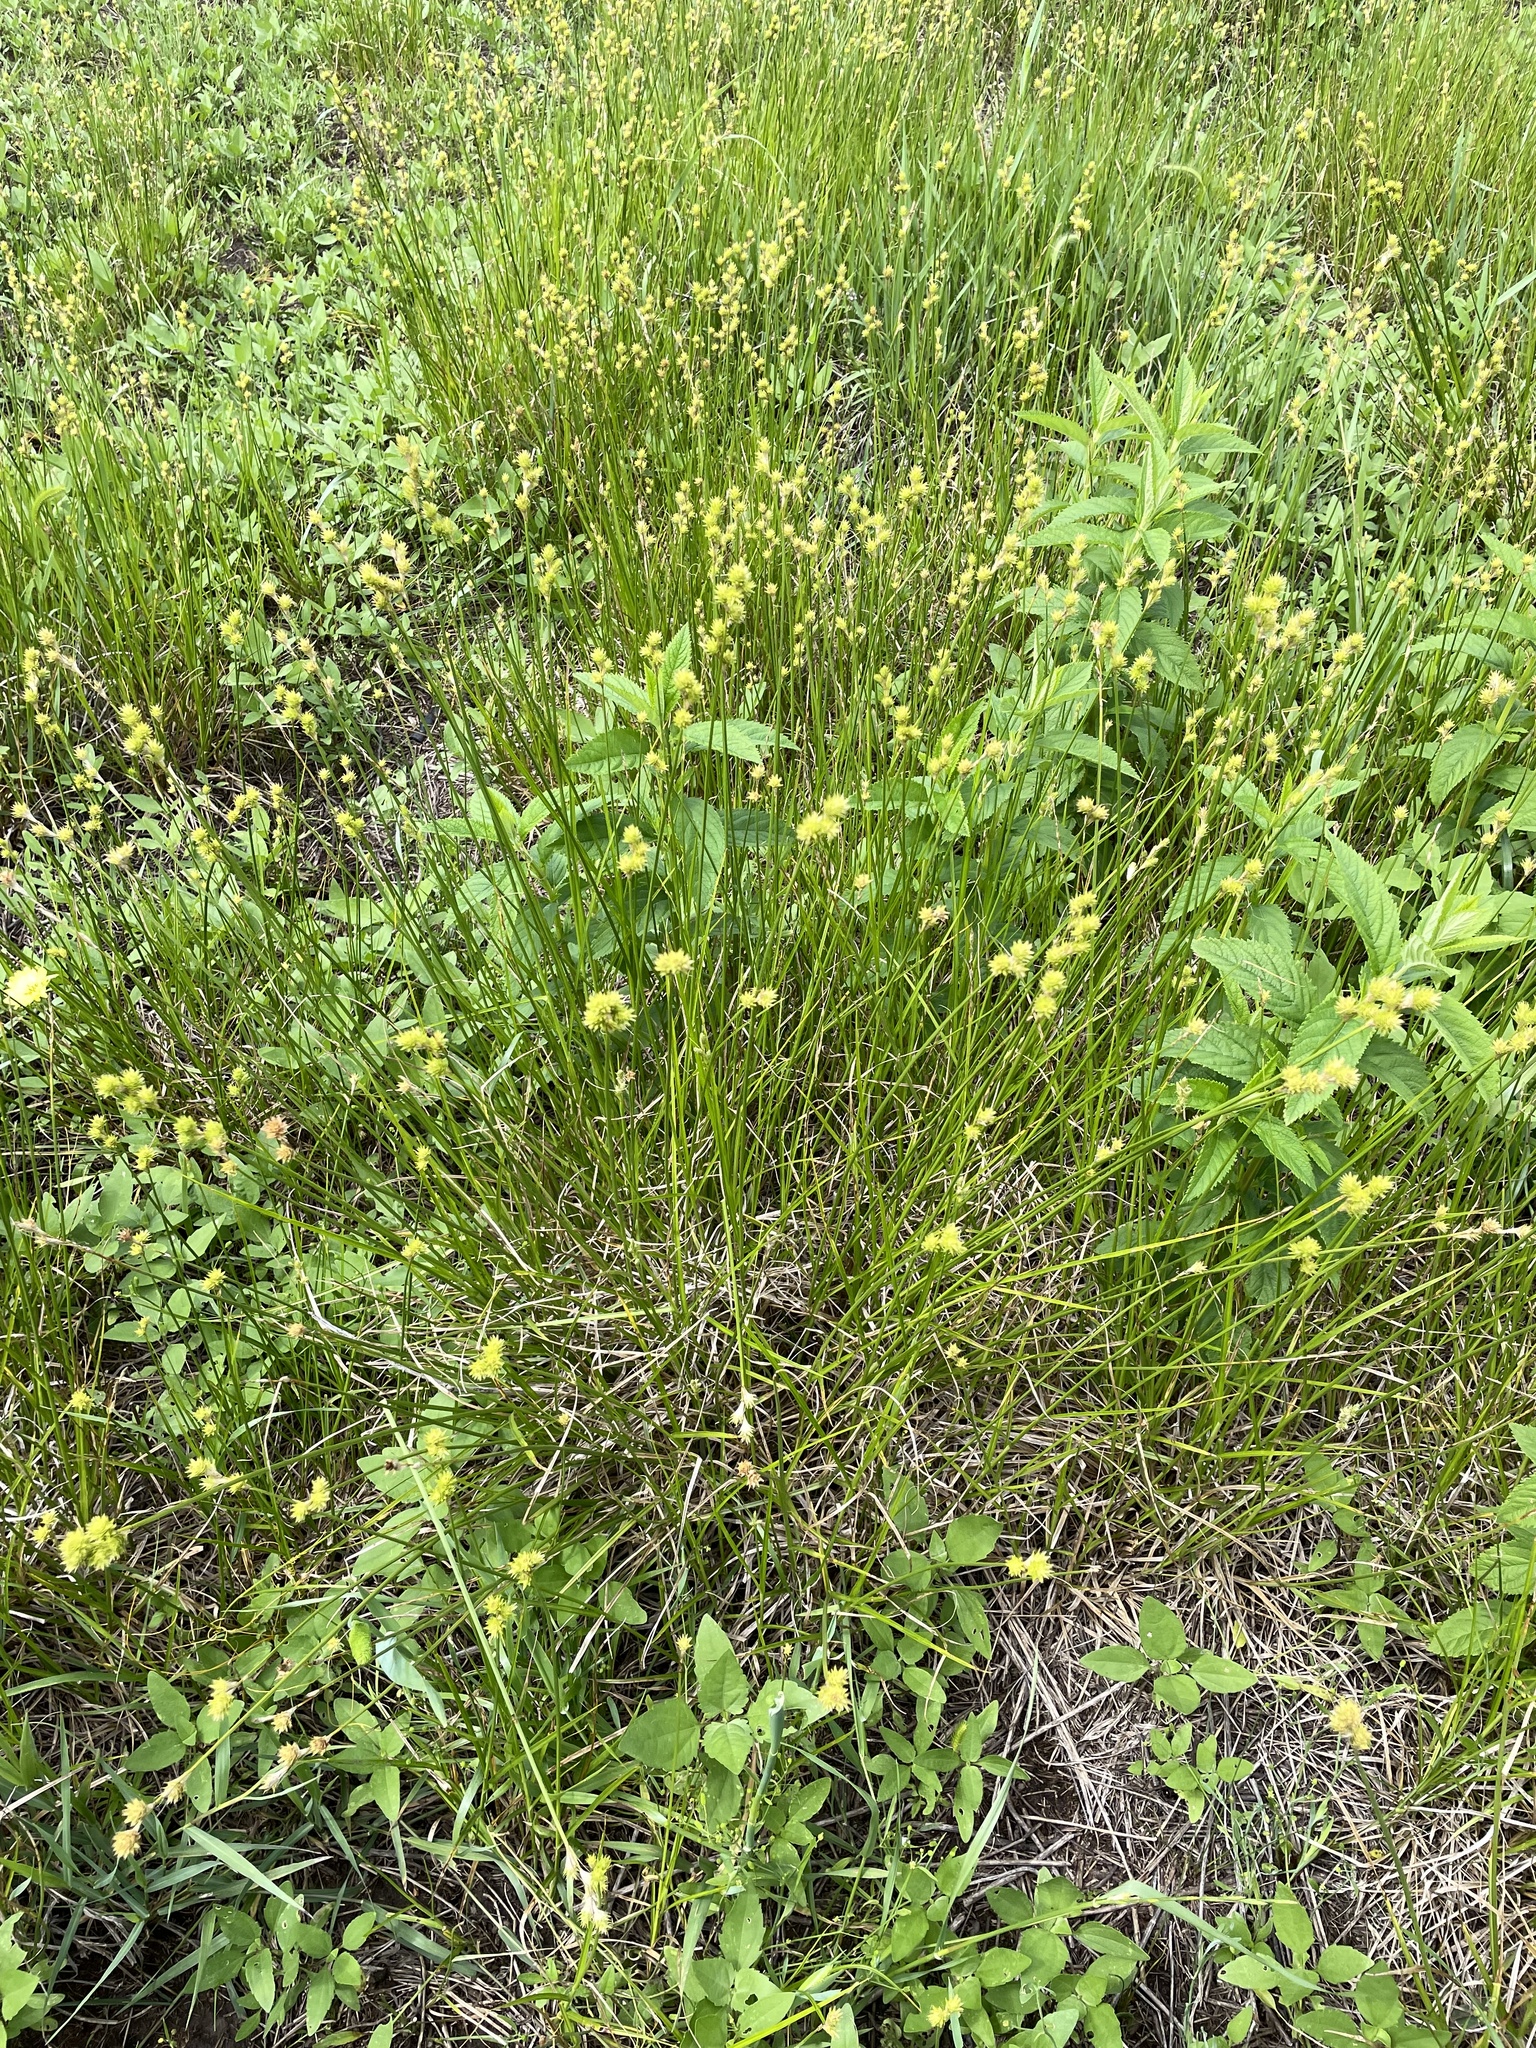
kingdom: Plantae
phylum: Tracheophyta
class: Liliopsida
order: Poales
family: Cyperaceae
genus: Carex
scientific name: Carex tetrastachya
